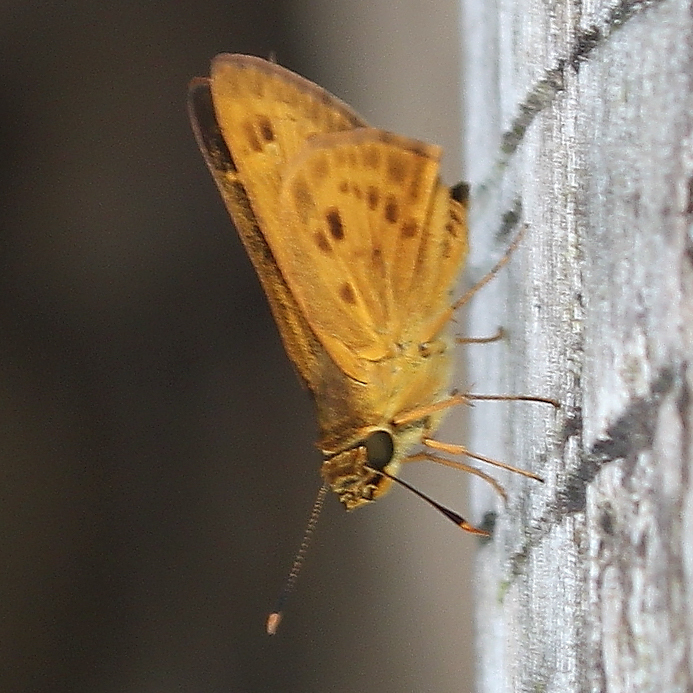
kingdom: Animalia
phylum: Arthropoda
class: Insecta
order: Lepidoptera
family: Hesperiidae
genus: Thoressa
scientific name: Thoressa masoni
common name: Golden ace
